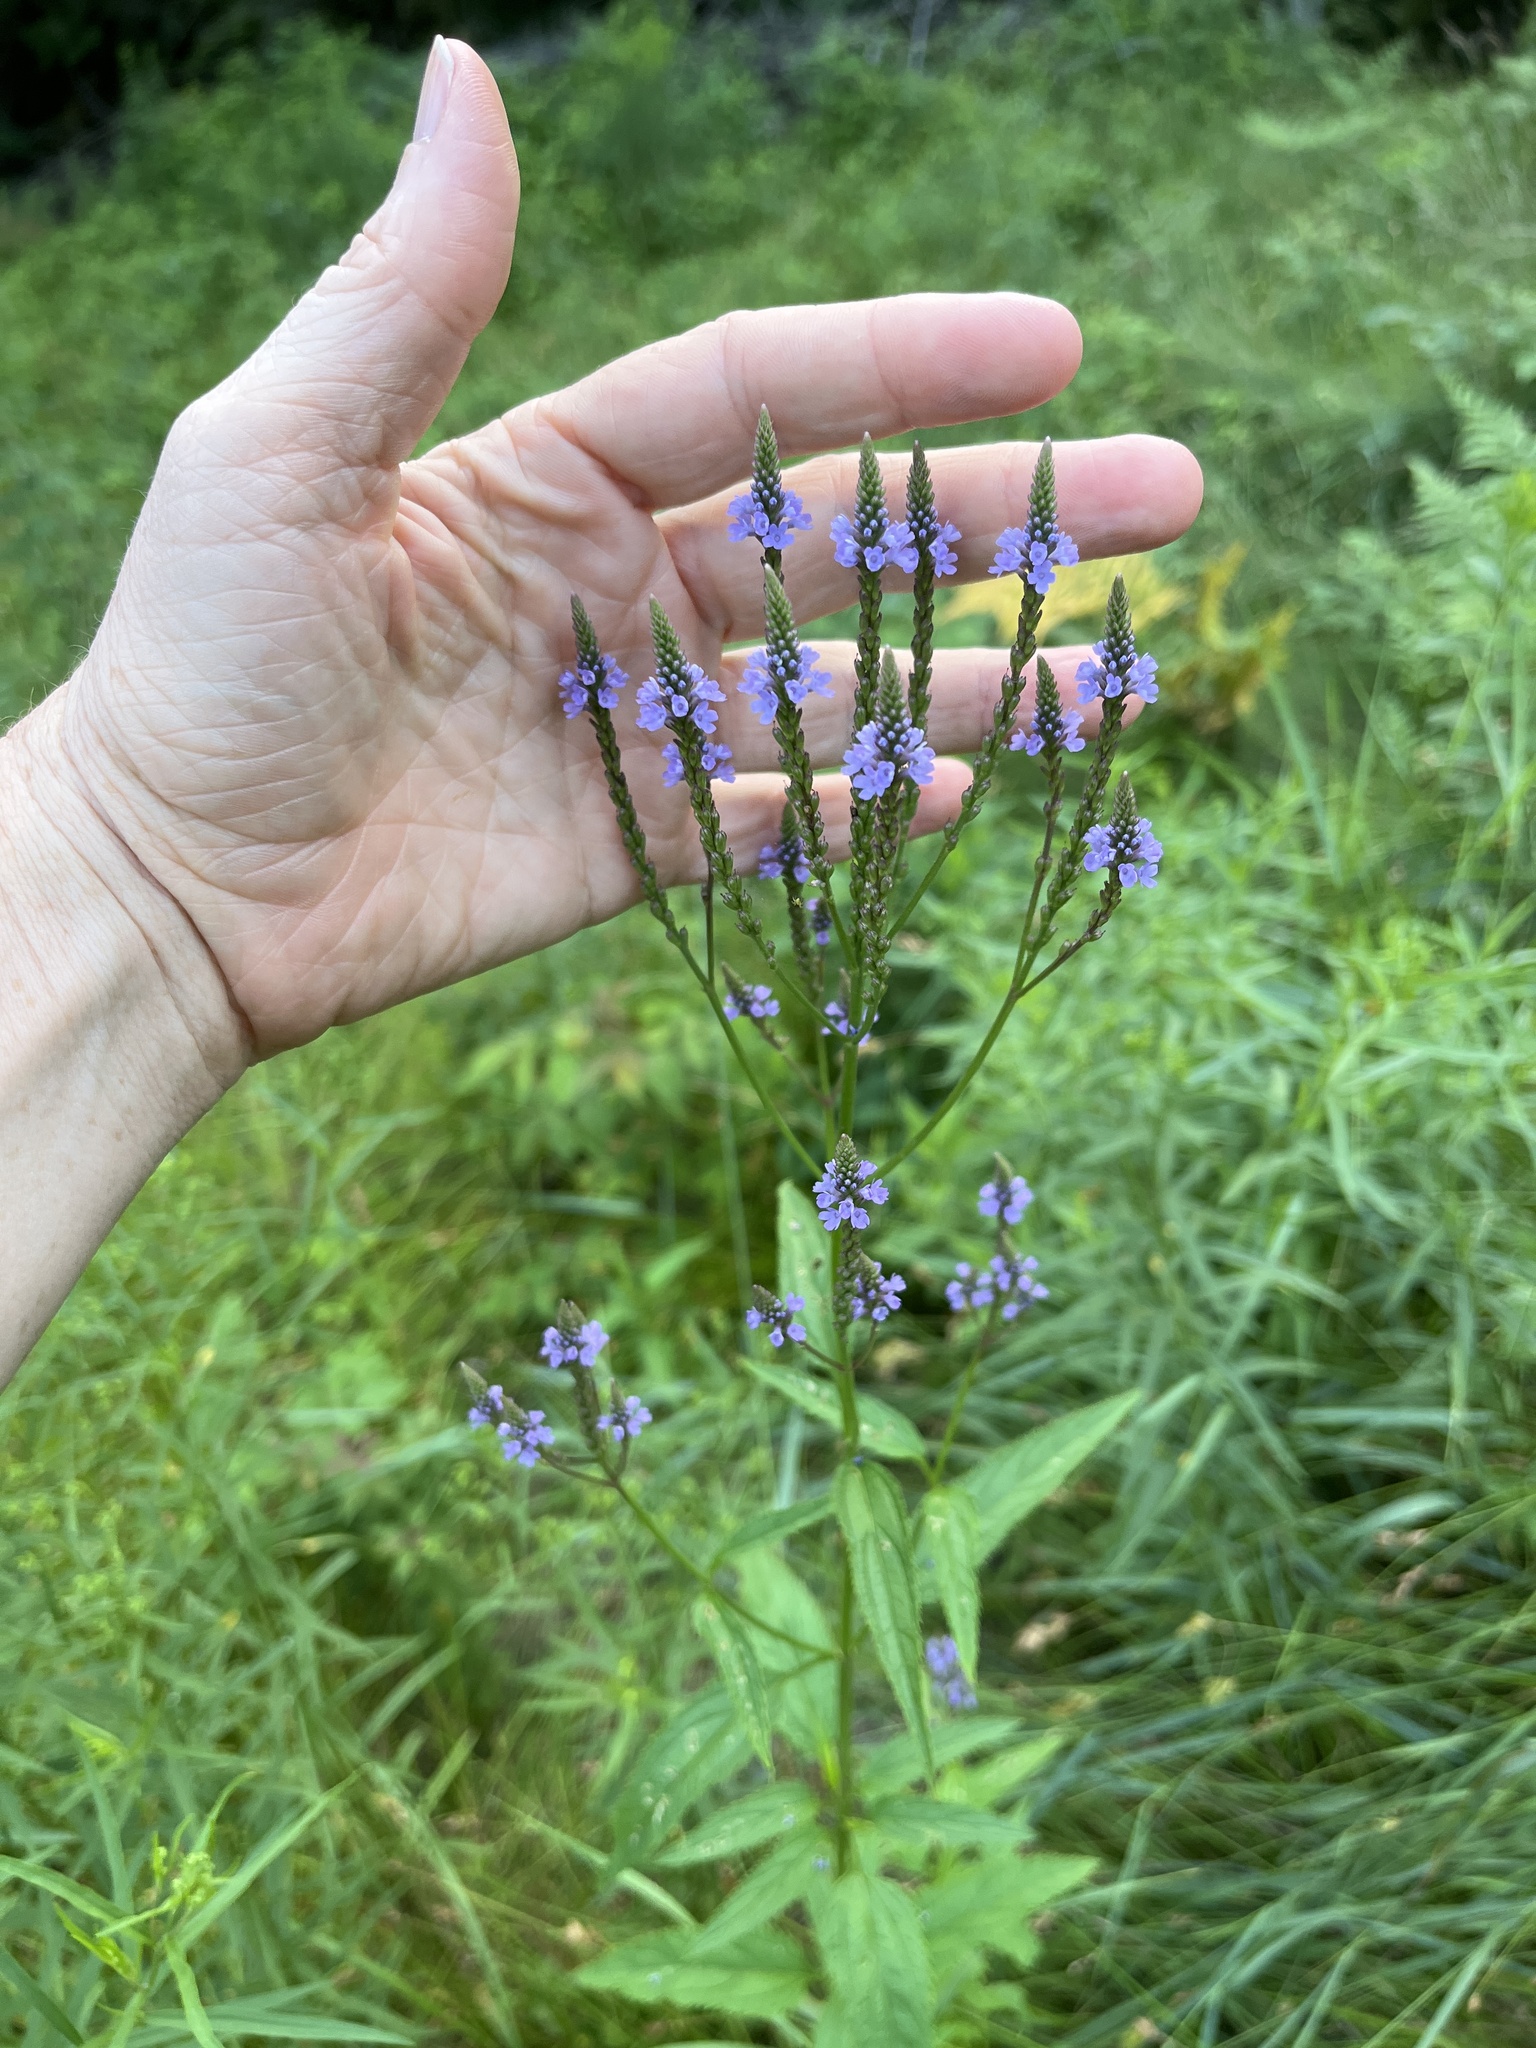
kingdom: Plantae
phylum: Tracheophyta
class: Magnoliopsida
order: Lamiales
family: Verbenaceae
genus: Verbena
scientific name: Verbena hastata
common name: American blue vervain
